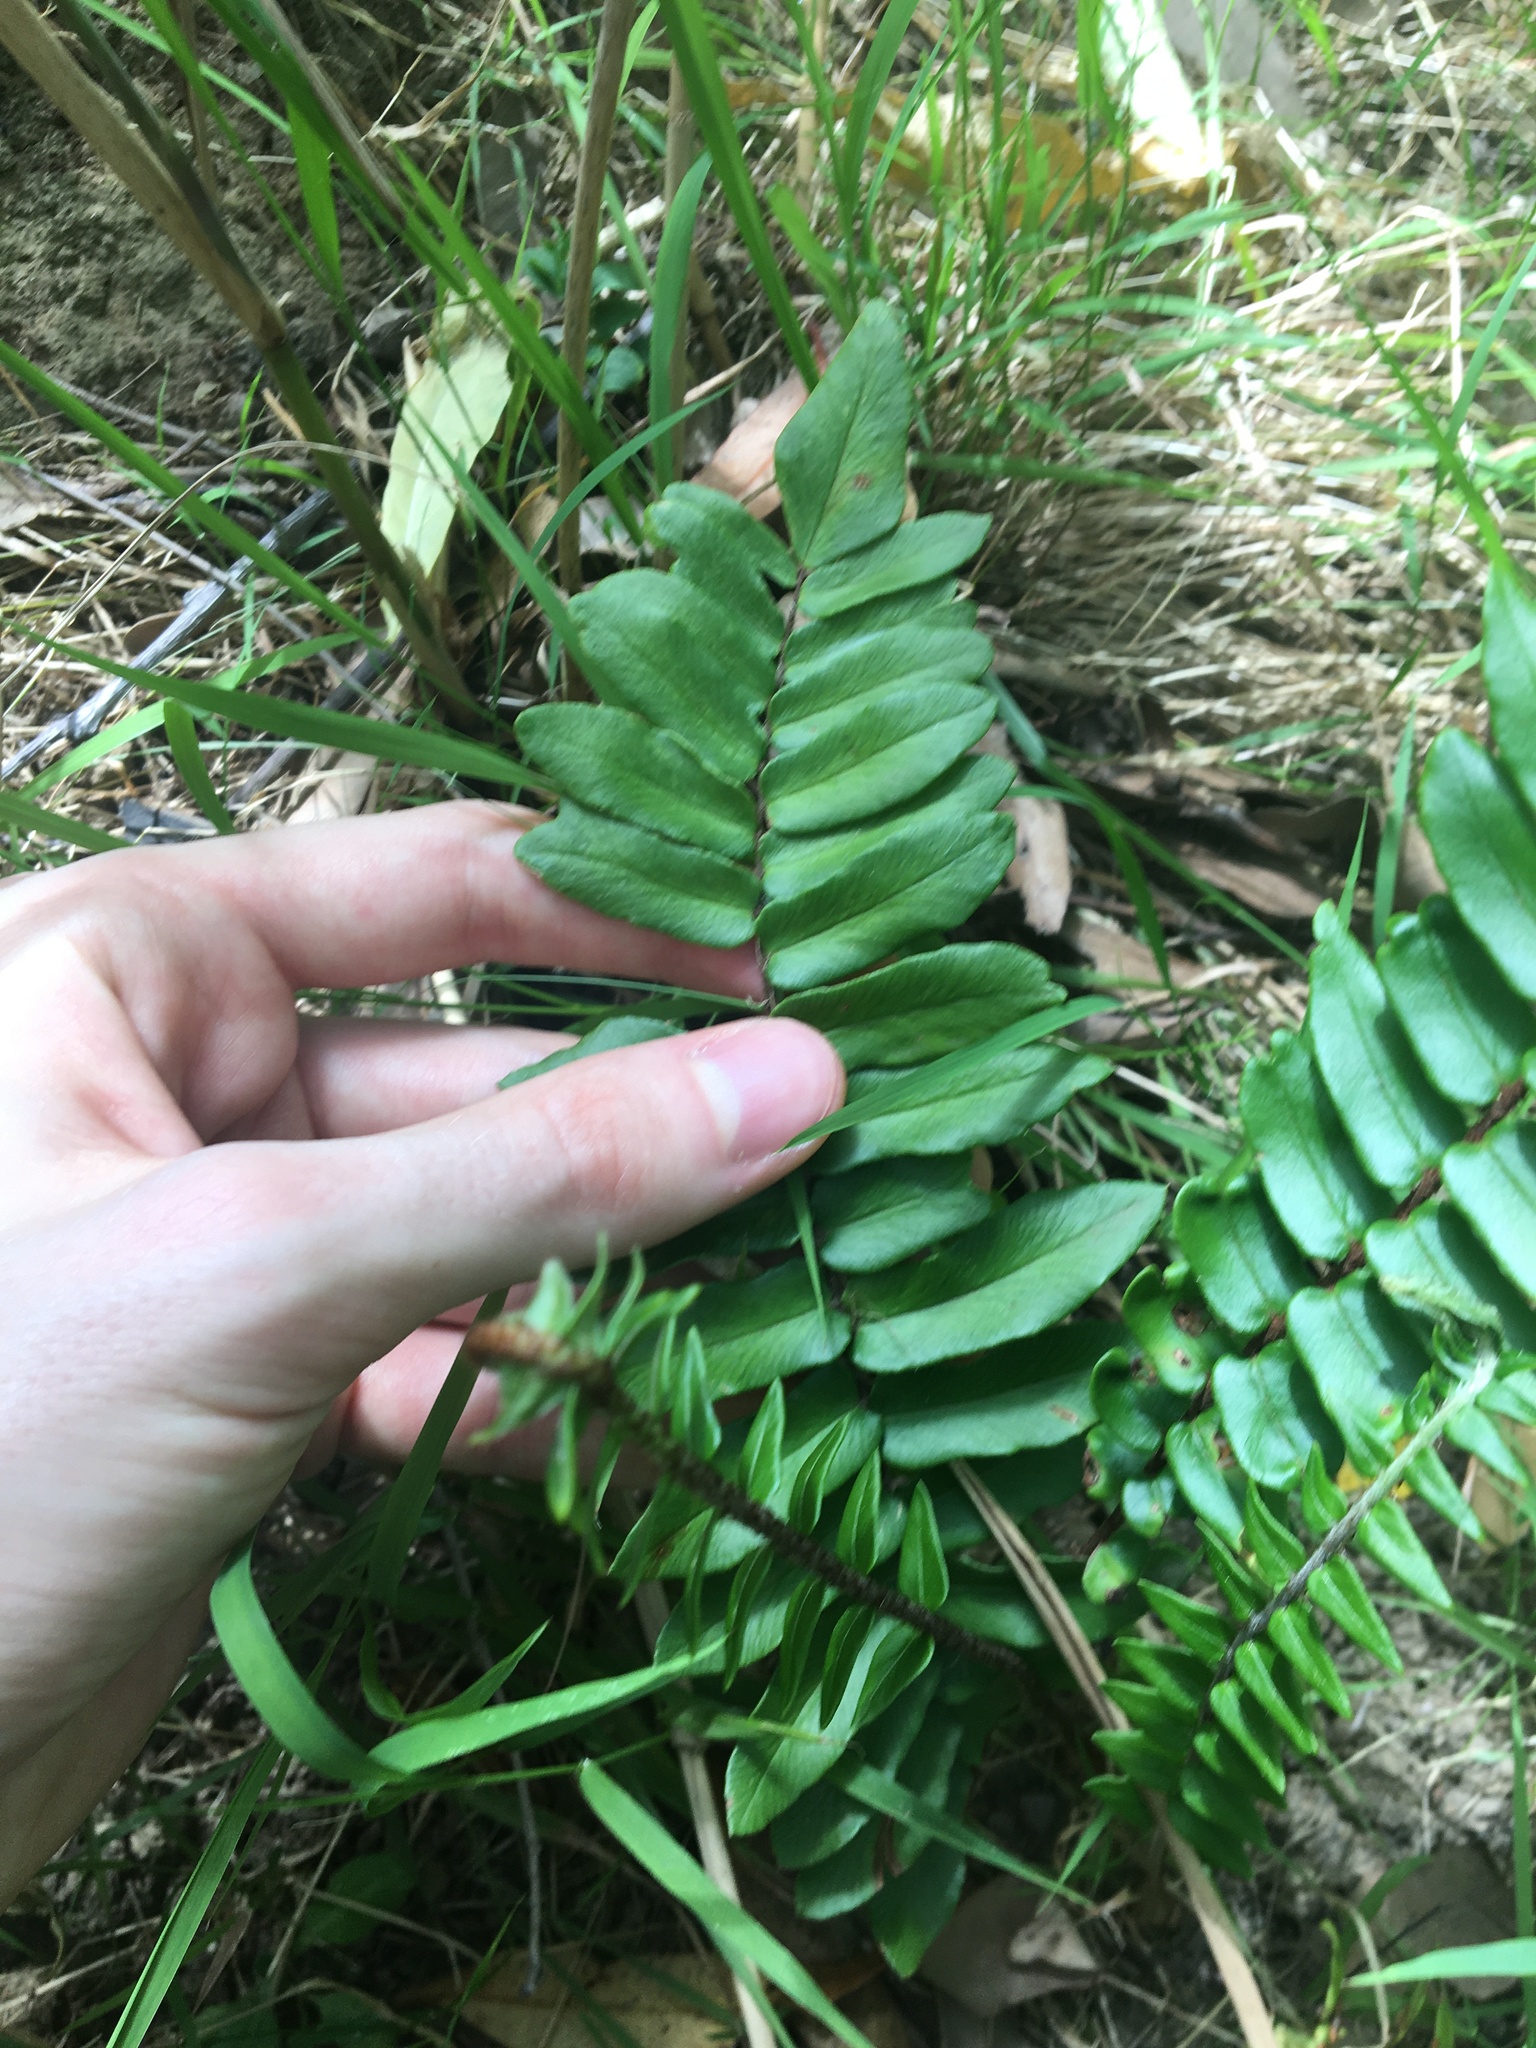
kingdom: Plantae
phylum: Tracheophyta
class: Polypodiopsida
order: Polypodiales
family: Pteridaceae
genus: Pellaea
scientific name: Pellaea falcata
